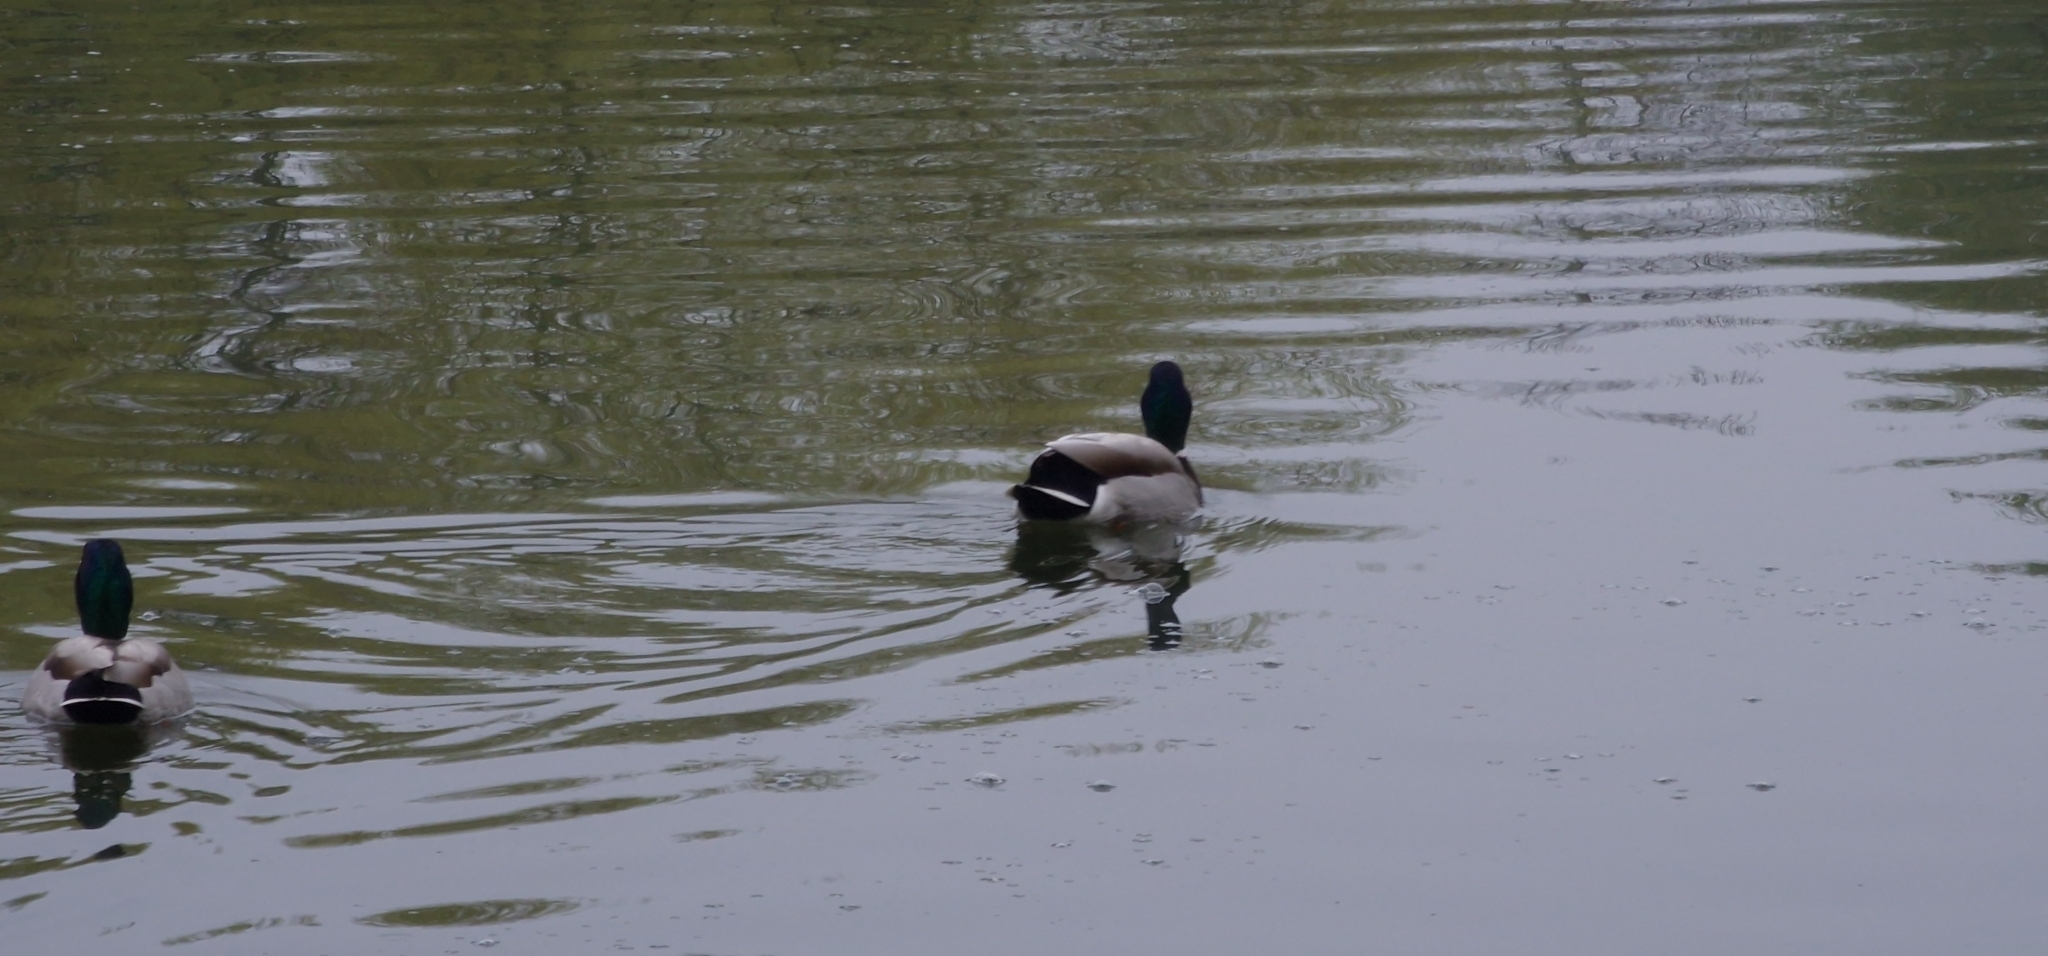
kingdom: Animalia
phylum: Chordata
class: Aves
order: Anseriformes
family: Anatidae
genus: Anas
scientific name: Anas platyrhynchos
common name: Mallard
